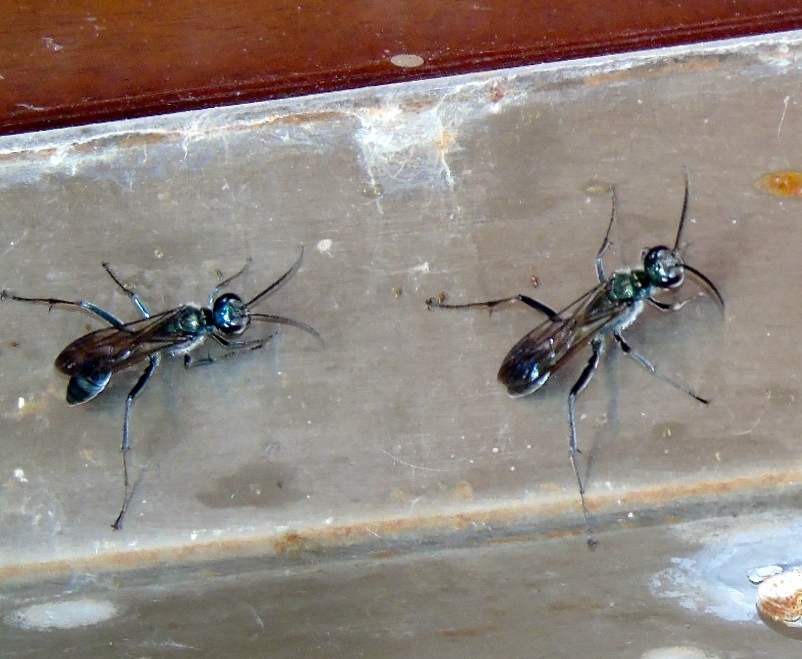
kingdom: Animalia
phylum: Arthropoda
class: Insecta
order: Hymenoptera
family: Sphecidae
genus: Chalybion
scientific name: Chalybion
